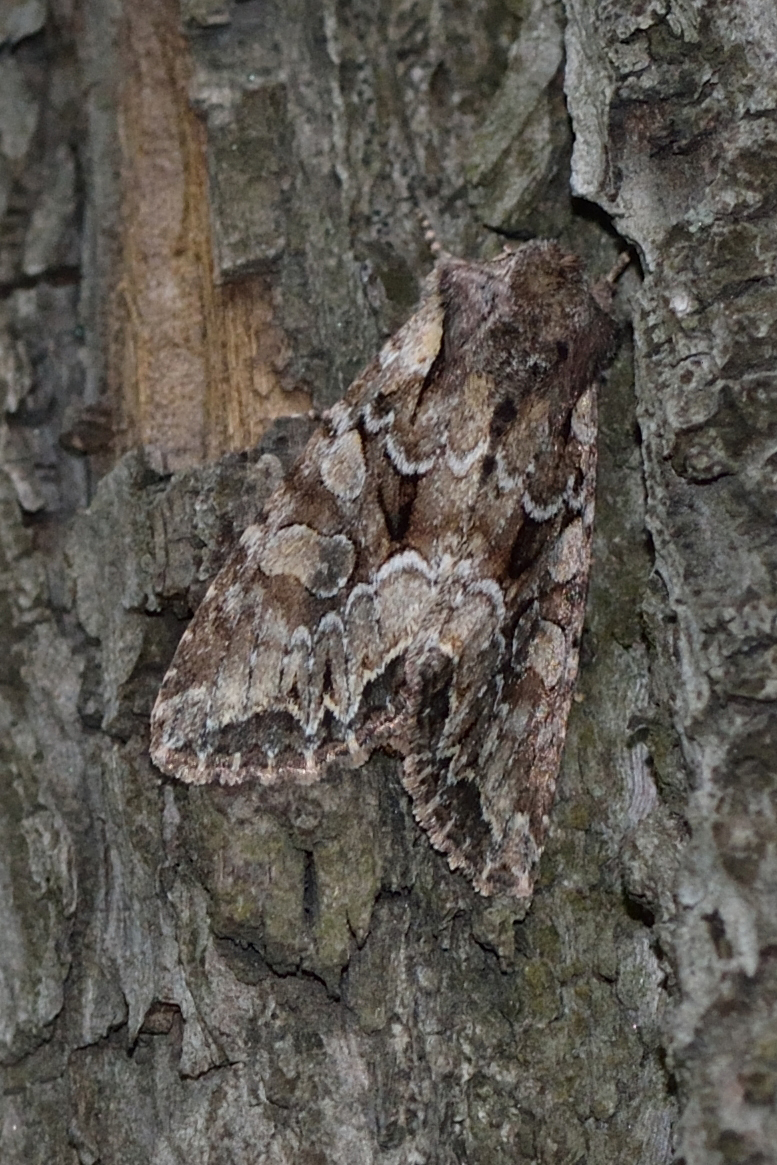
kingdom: Animalia
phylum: Arthropoda
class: Insecta
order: Lepidoptera
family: Noctuidae
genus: Lacanobia
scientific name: Lacanobia thalassina
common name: Pale-shouldered brocade
